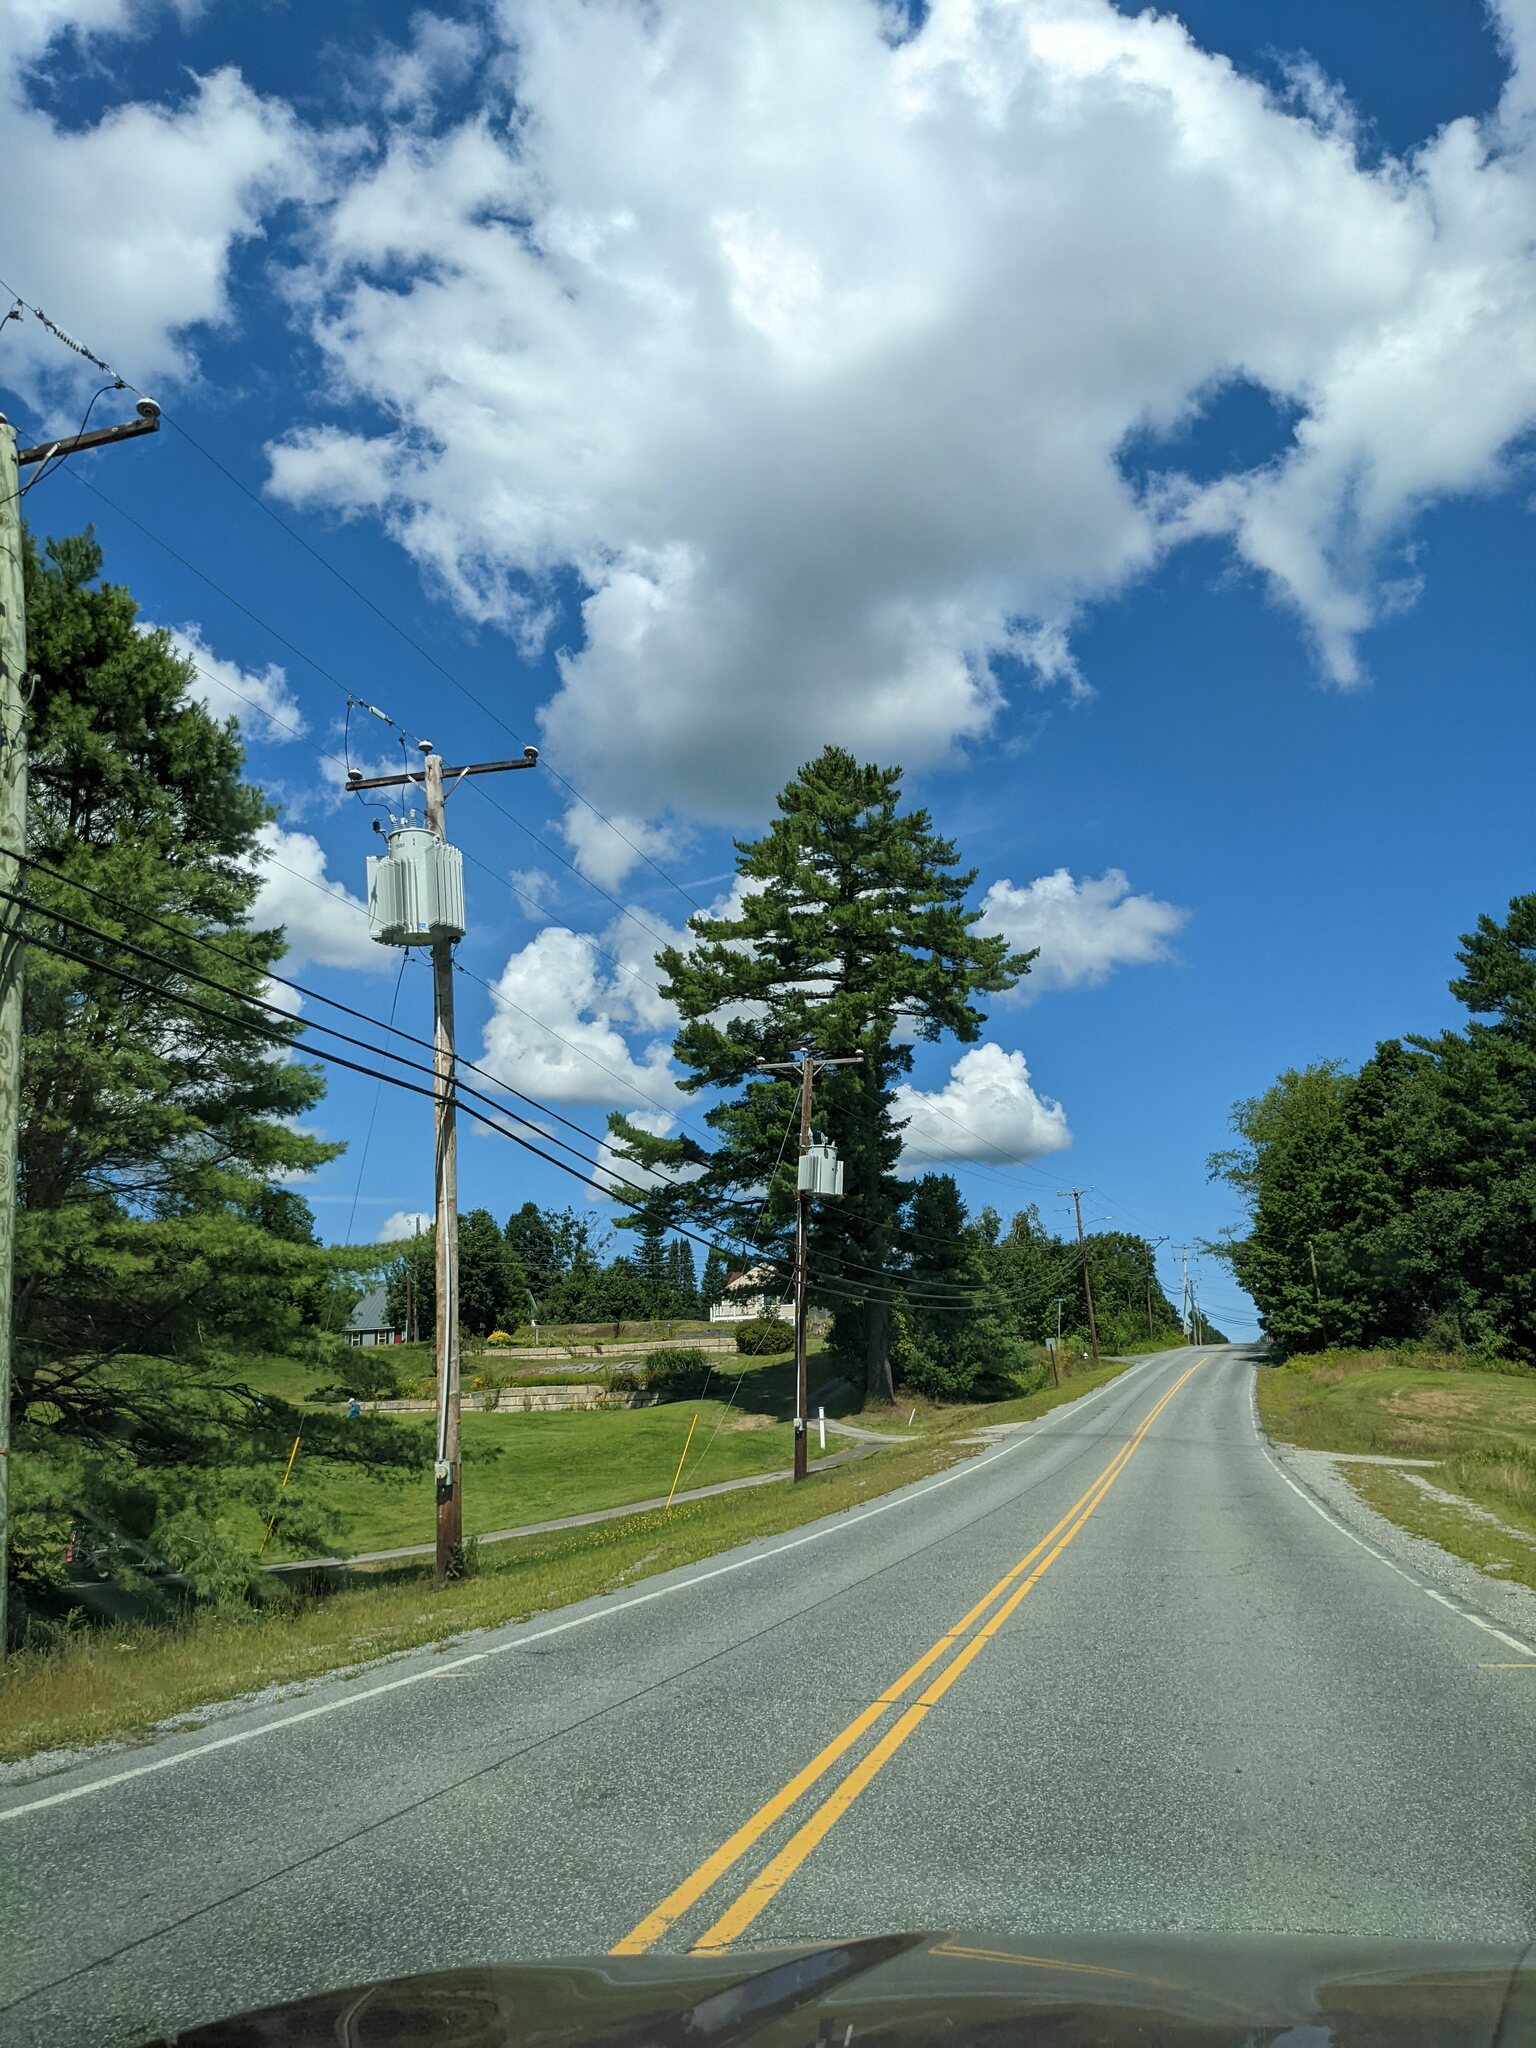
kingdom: Plantae
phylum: Tracheophyta
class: Pinopsida
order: Pinales
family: Pinaceae
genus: Pinus
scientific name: Pinus strobus
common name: Weymouth pine
